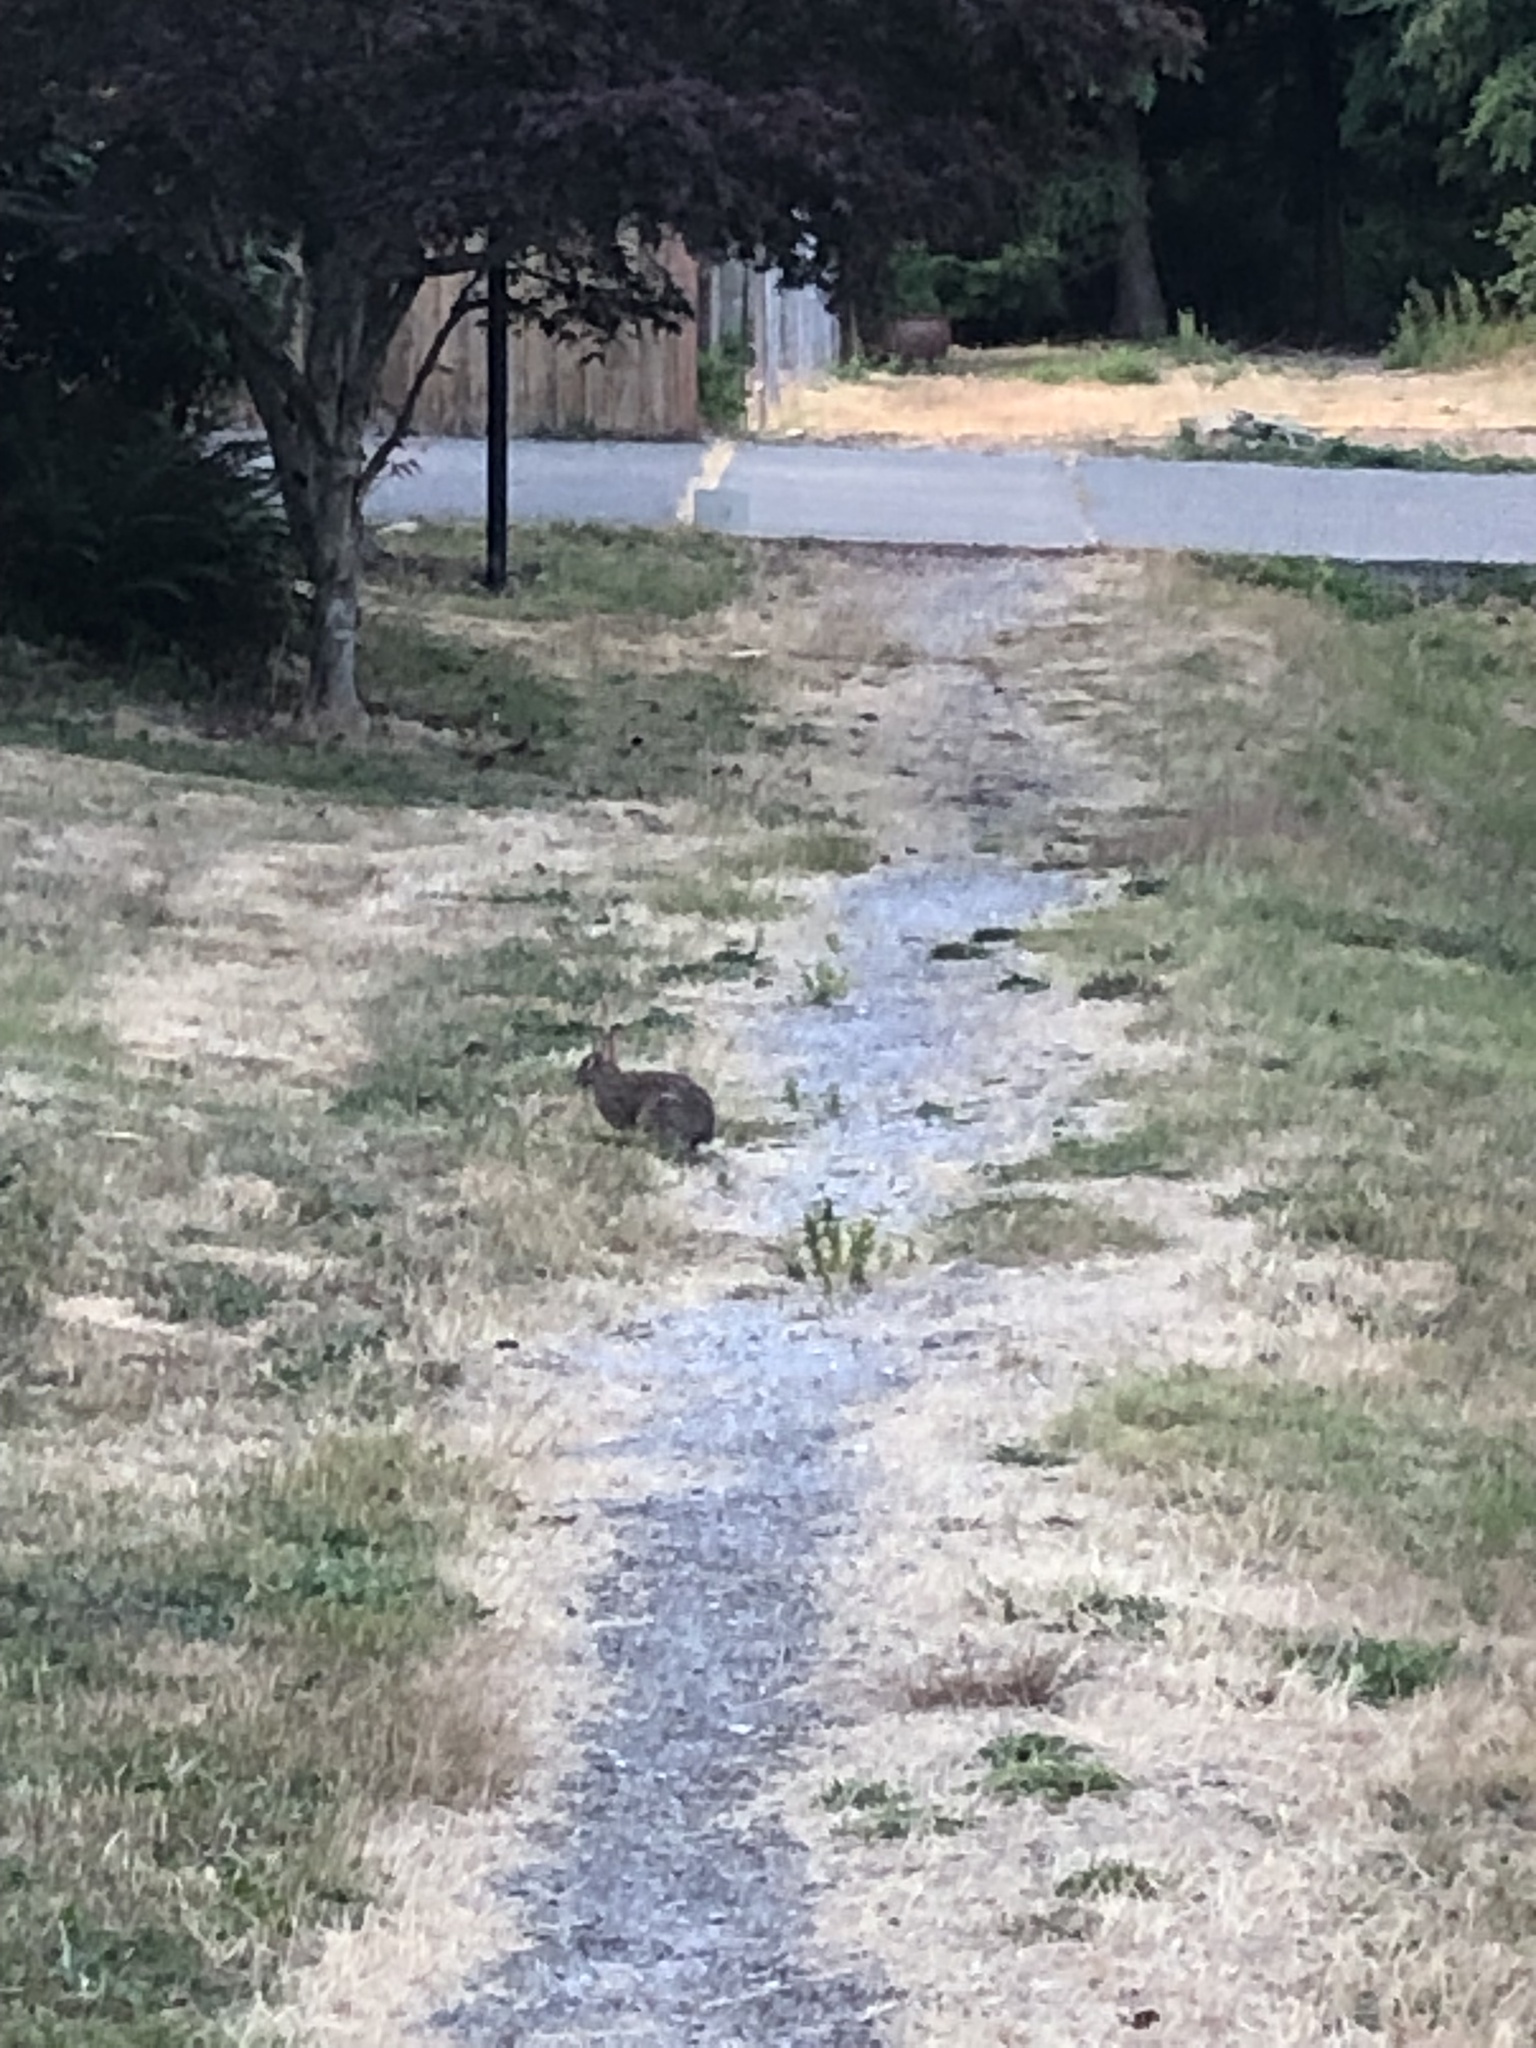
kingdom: Animalia
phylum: Chordata
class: Mammalia
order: Lagomorpha
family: Leporidae
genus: Sylvilagus
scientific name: Sylvilagus floridanus
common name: Eastern cottontail
